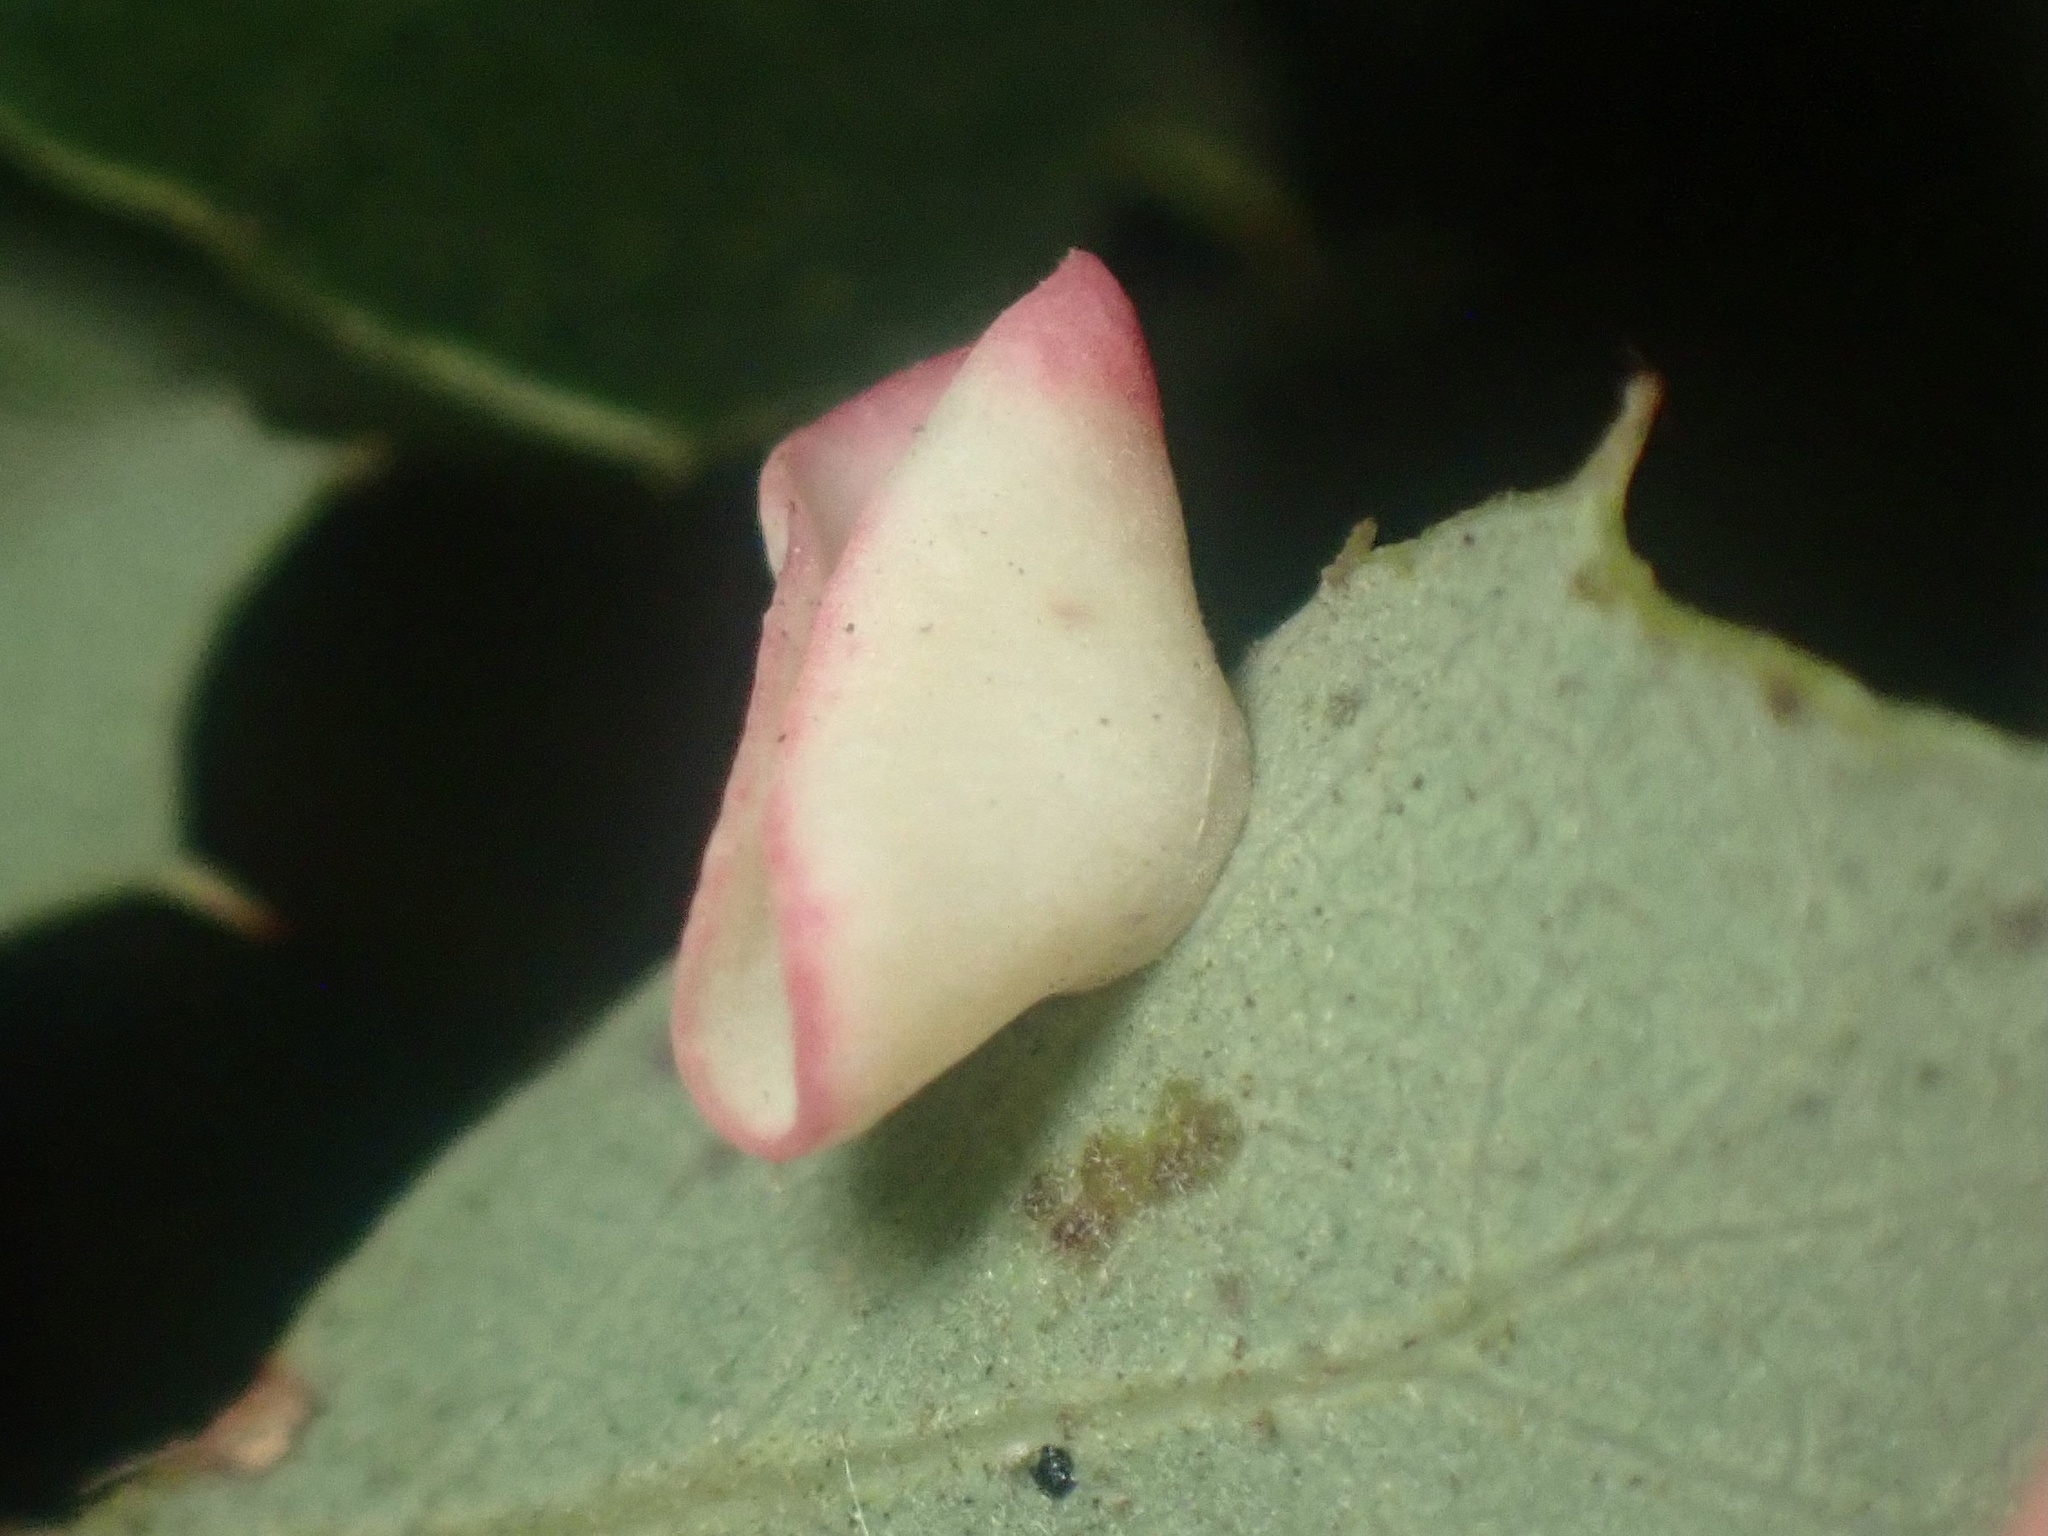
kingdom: Animalia
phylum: Arthropoda
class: Insecta
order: Hymenoptera
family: Cynipidae
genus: Andricus
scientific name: Andricus
